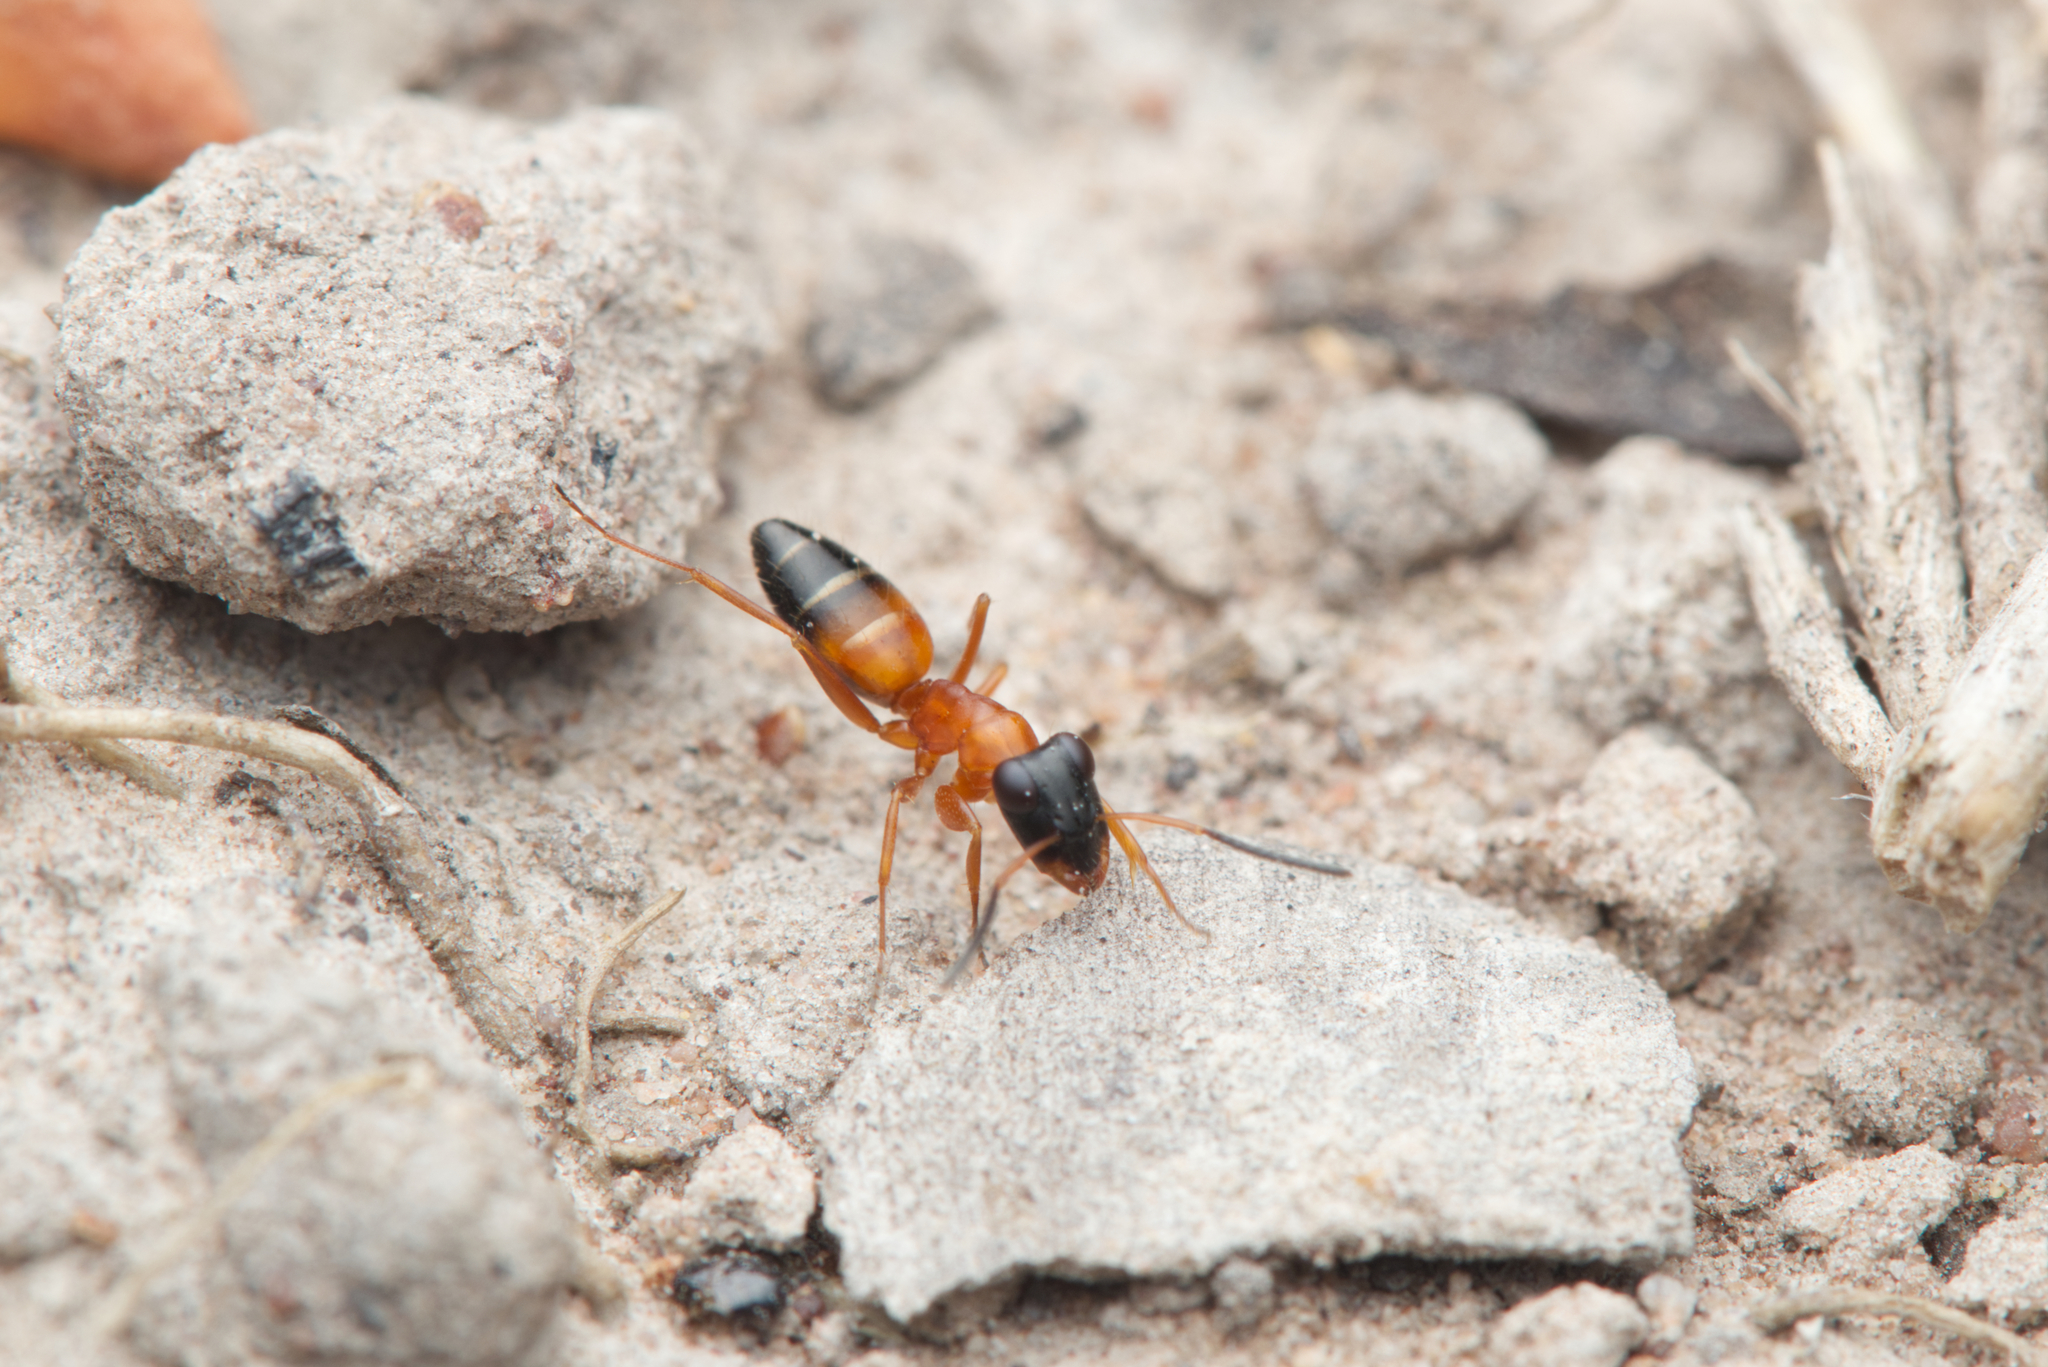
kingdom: Animalia
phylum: Arthropoda
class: Insecta
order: Hymenoptera
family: Formicidae
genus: Opisthopsis
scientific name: Opisthopsis rufithorax
